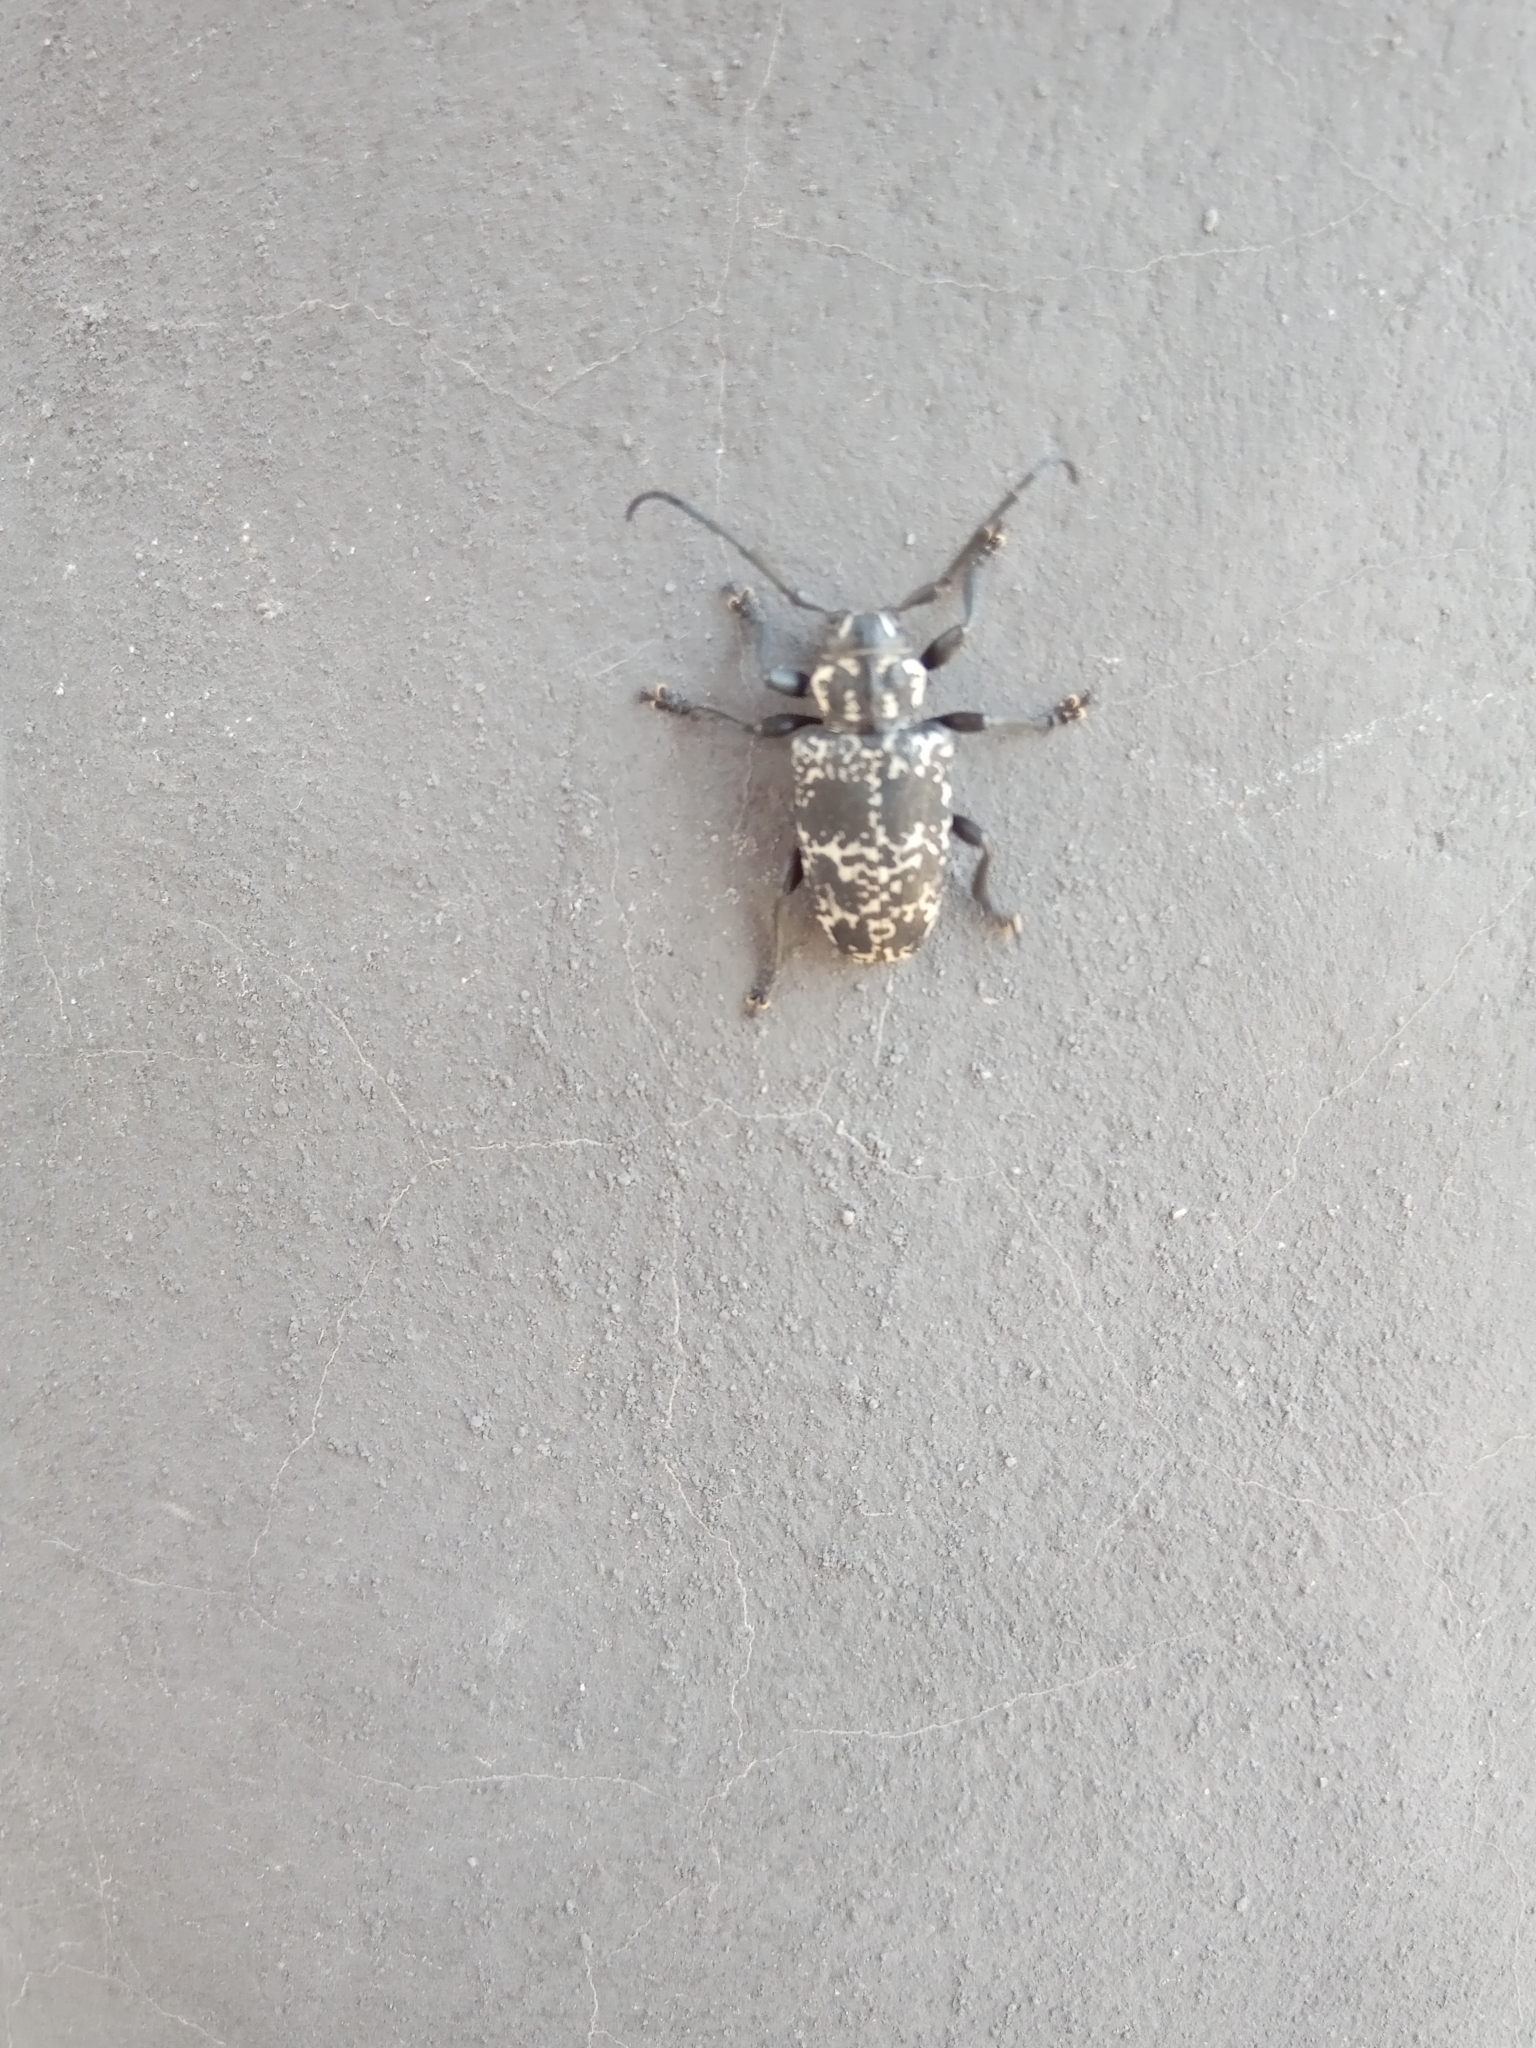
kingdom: Animalia
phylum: Arthropoda
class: Insecta
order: Coleoptera
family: Cerambycidae
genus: Acanthoderes
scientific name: Acanthoderes funeraria
